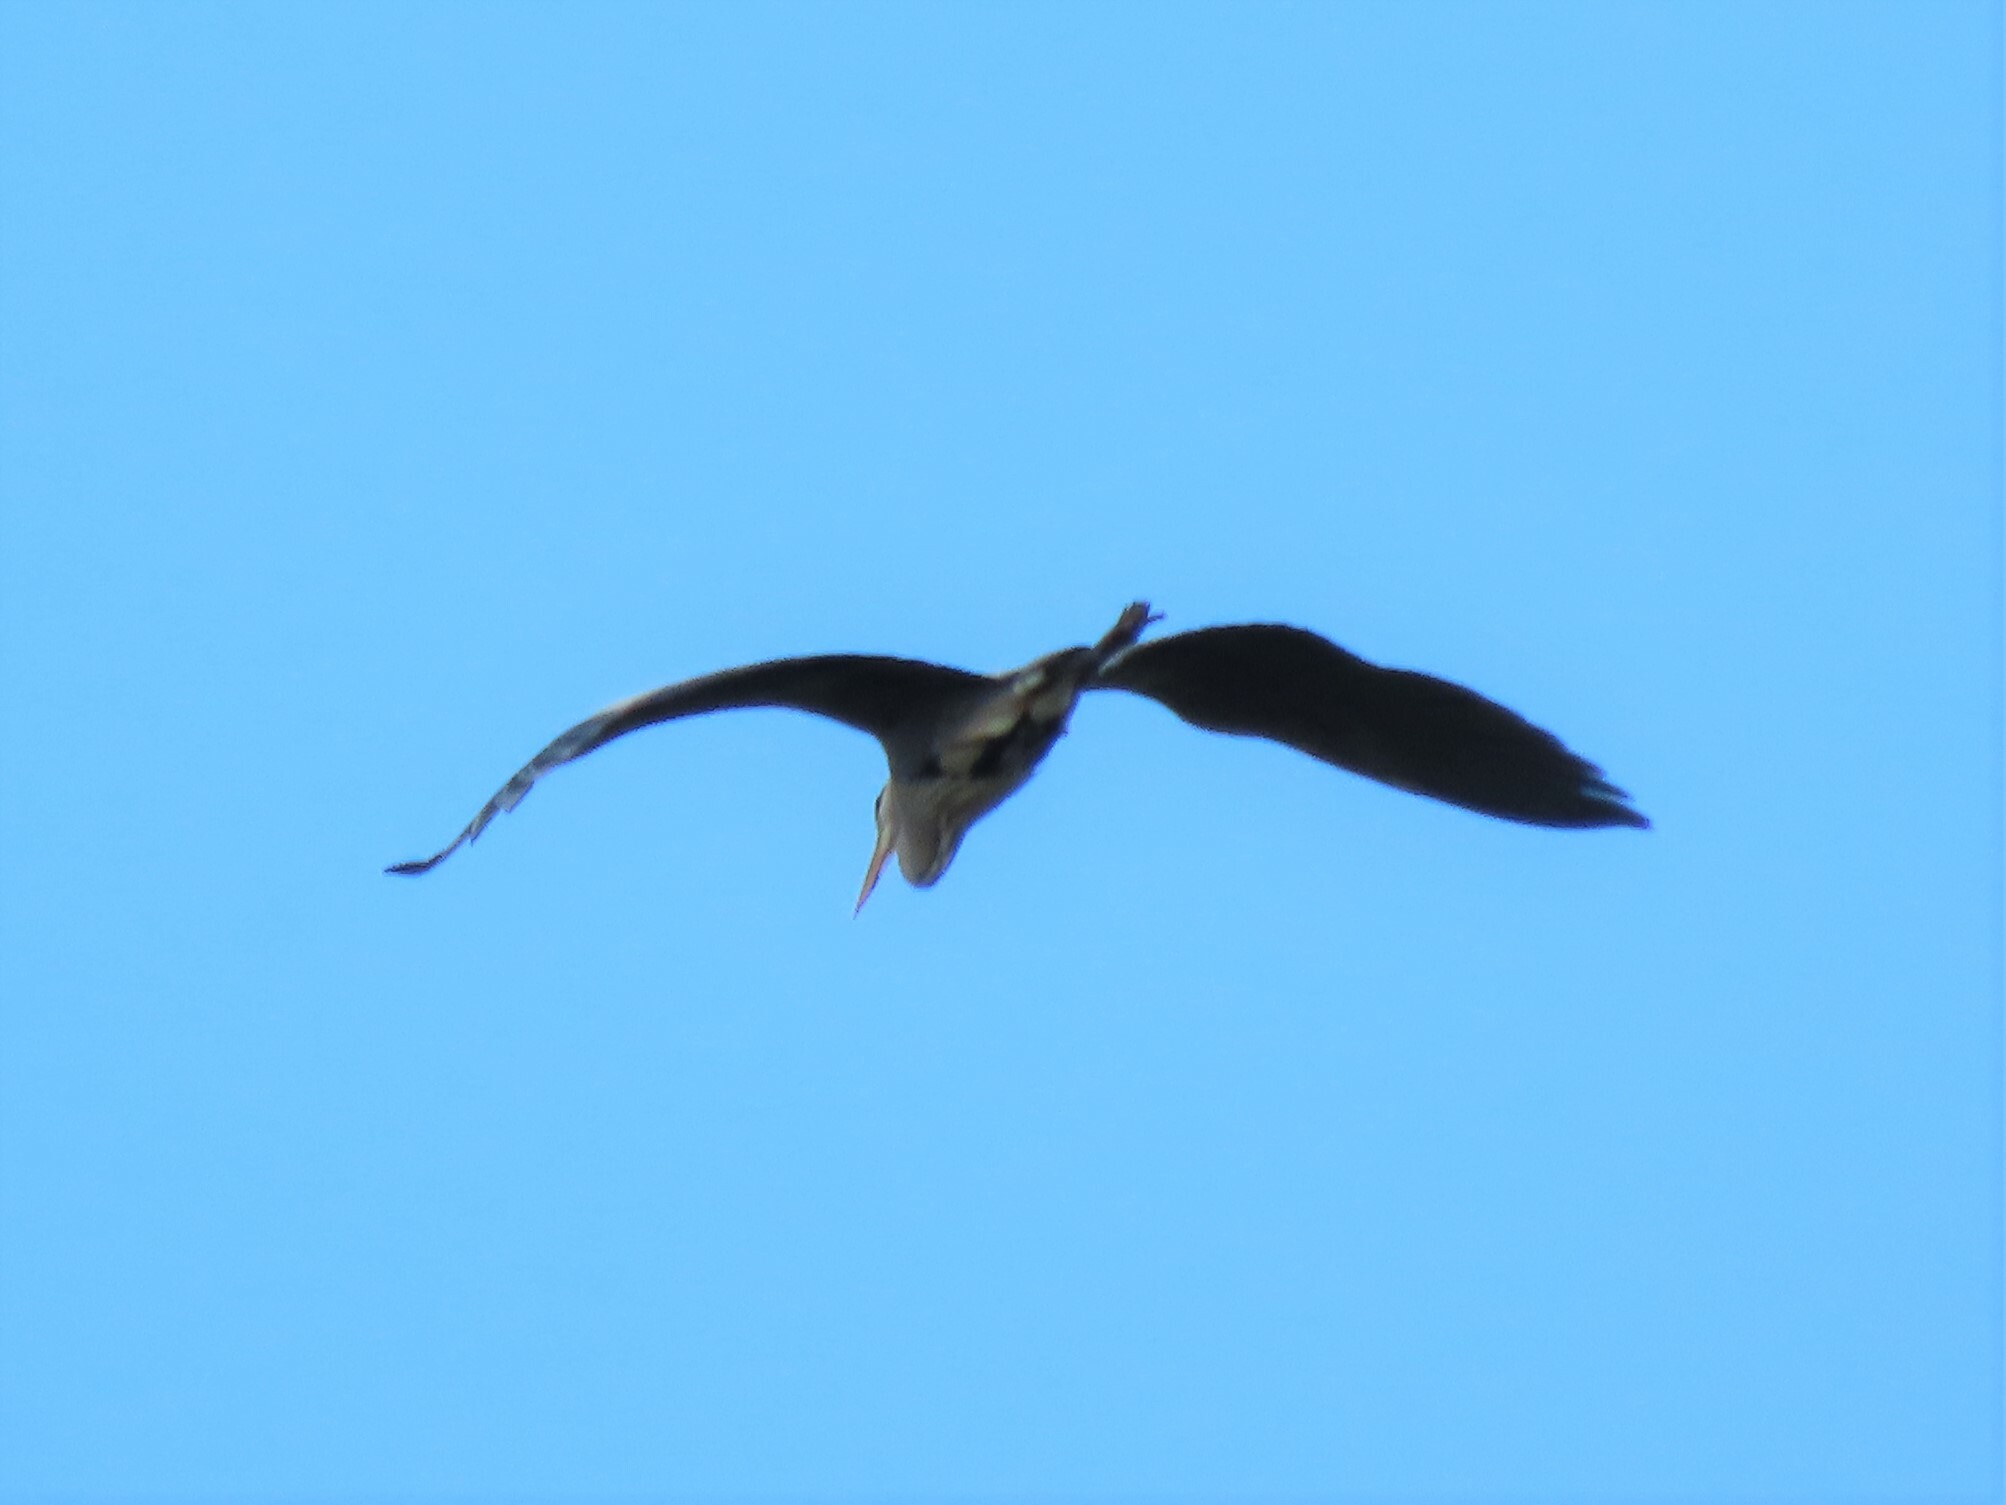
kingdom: Animalia
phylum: Chordata
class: Aves
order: Pelecaniformes
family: Ardeidae
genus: Ardea
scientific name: Ardea cinerea
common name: Grey heron
